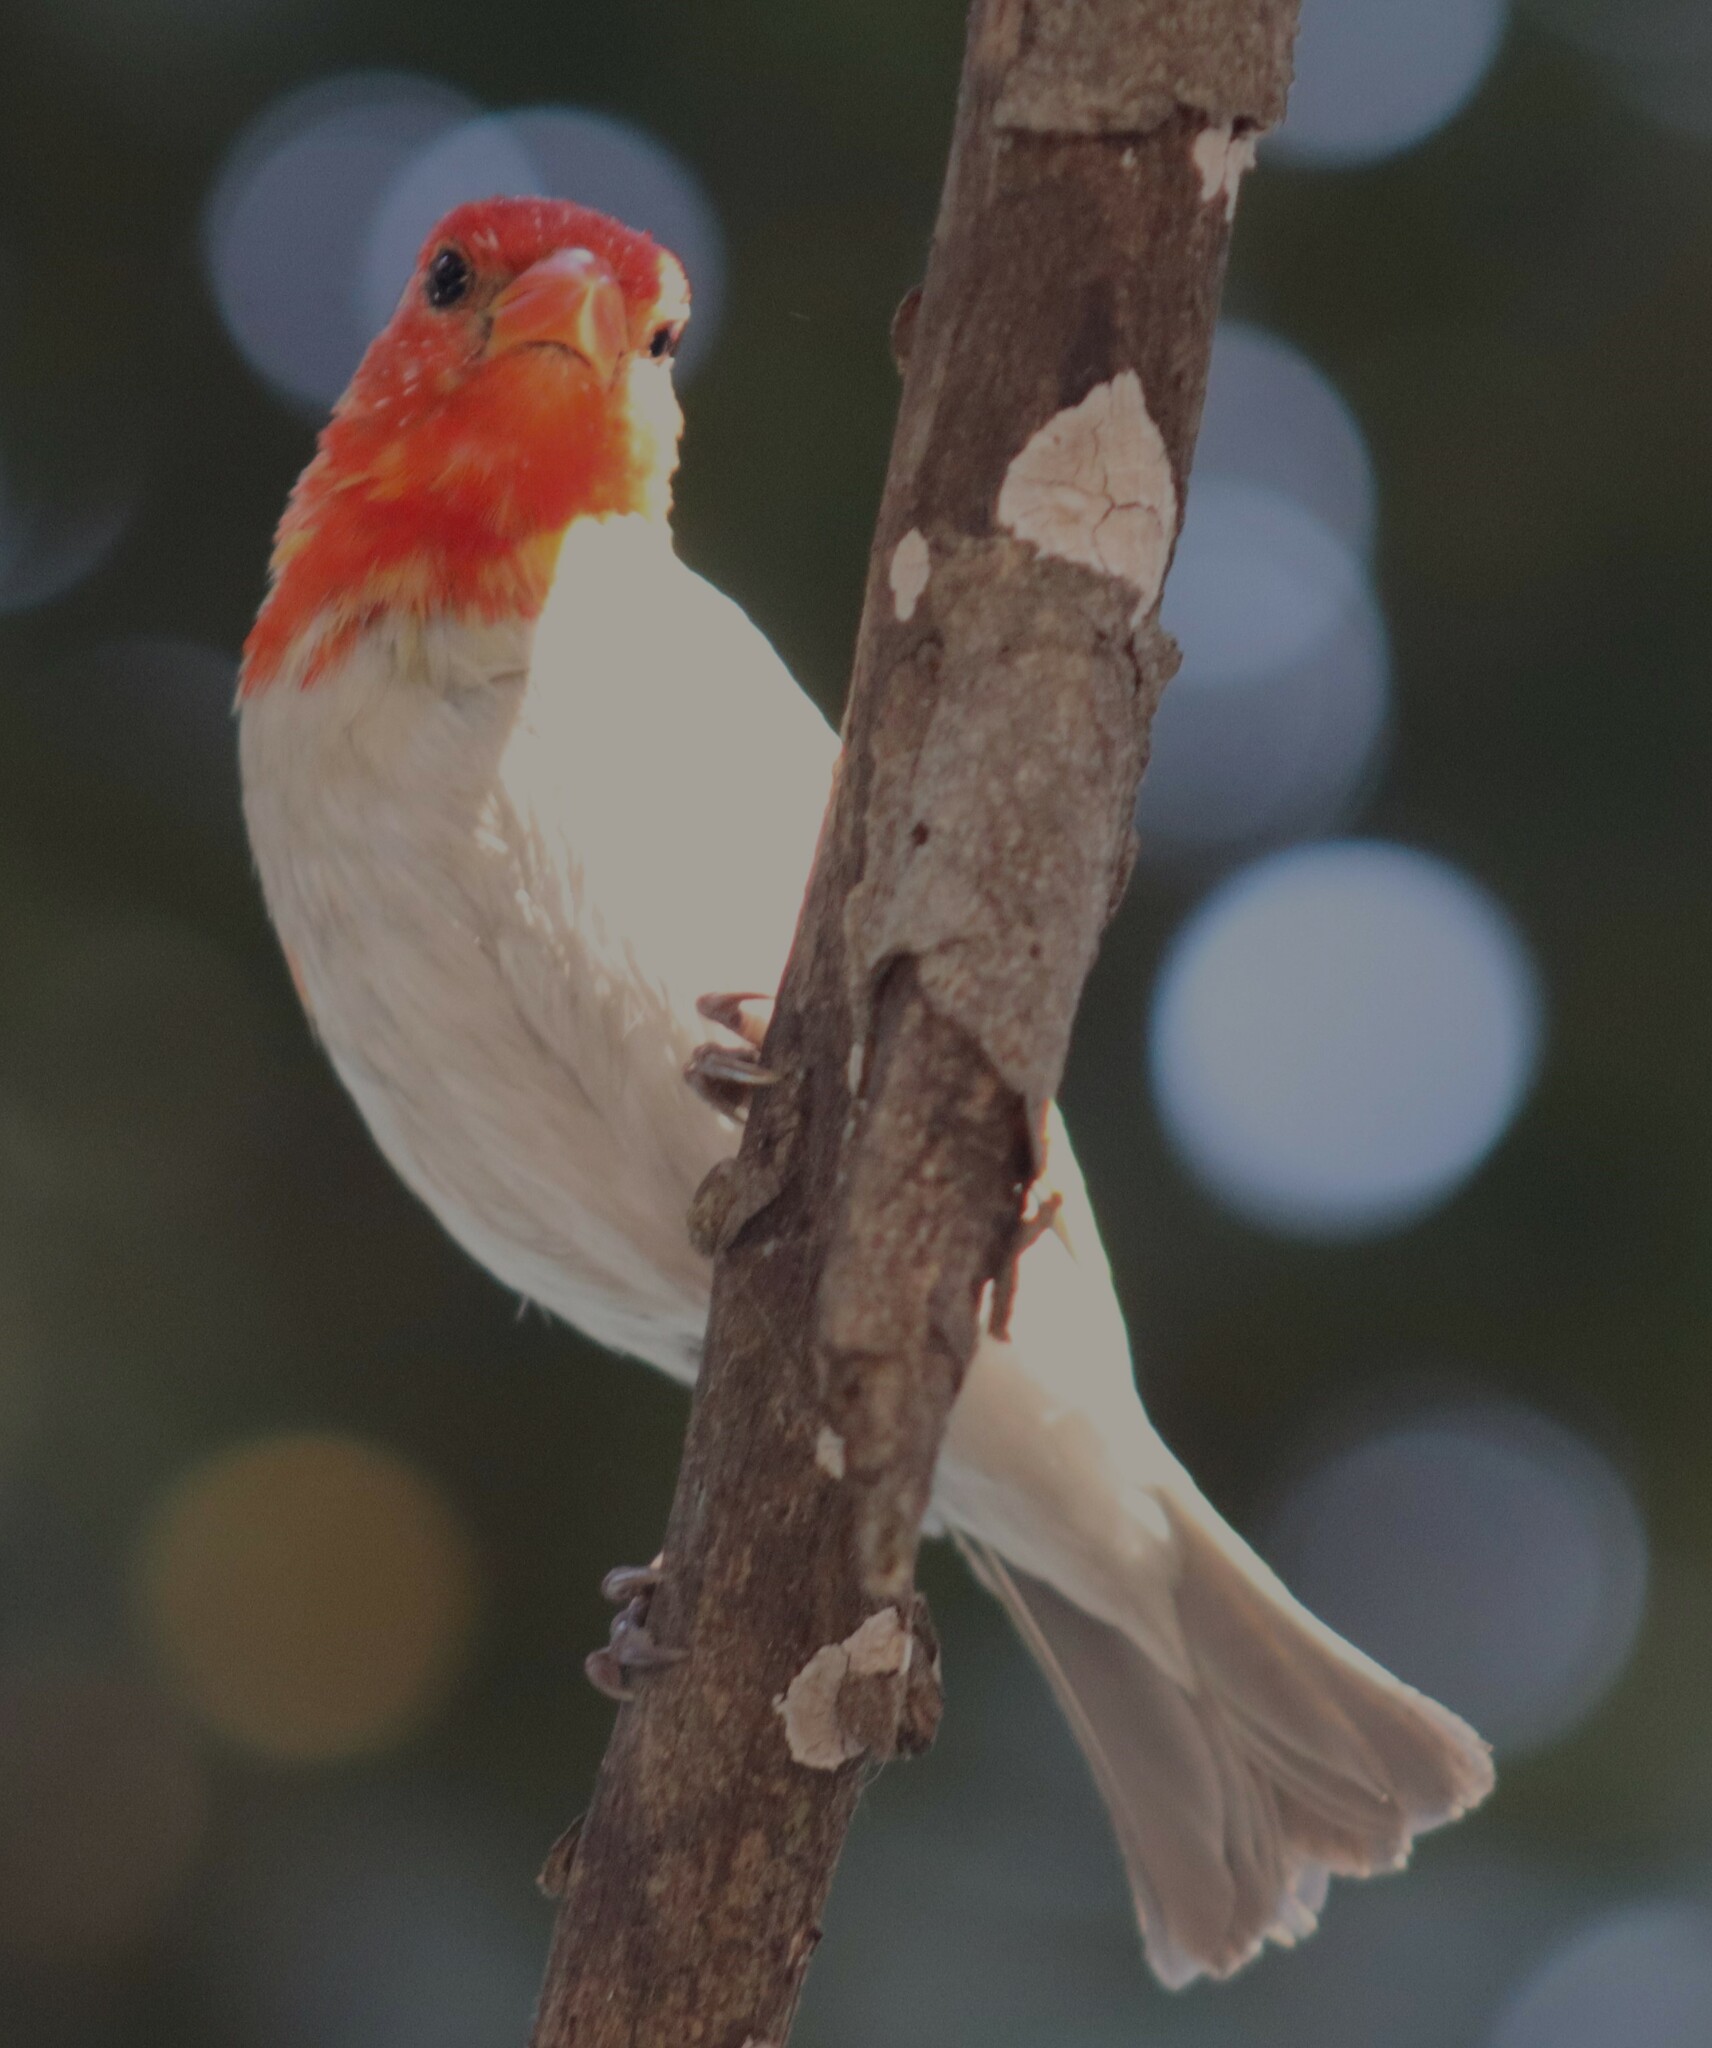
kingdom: Animalia
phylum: Chordata
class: Aves
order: Passeriformes
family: Ploceidae
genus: Anaplectes
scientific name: Anaplectes rubriceps
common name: Red-headed weaver
